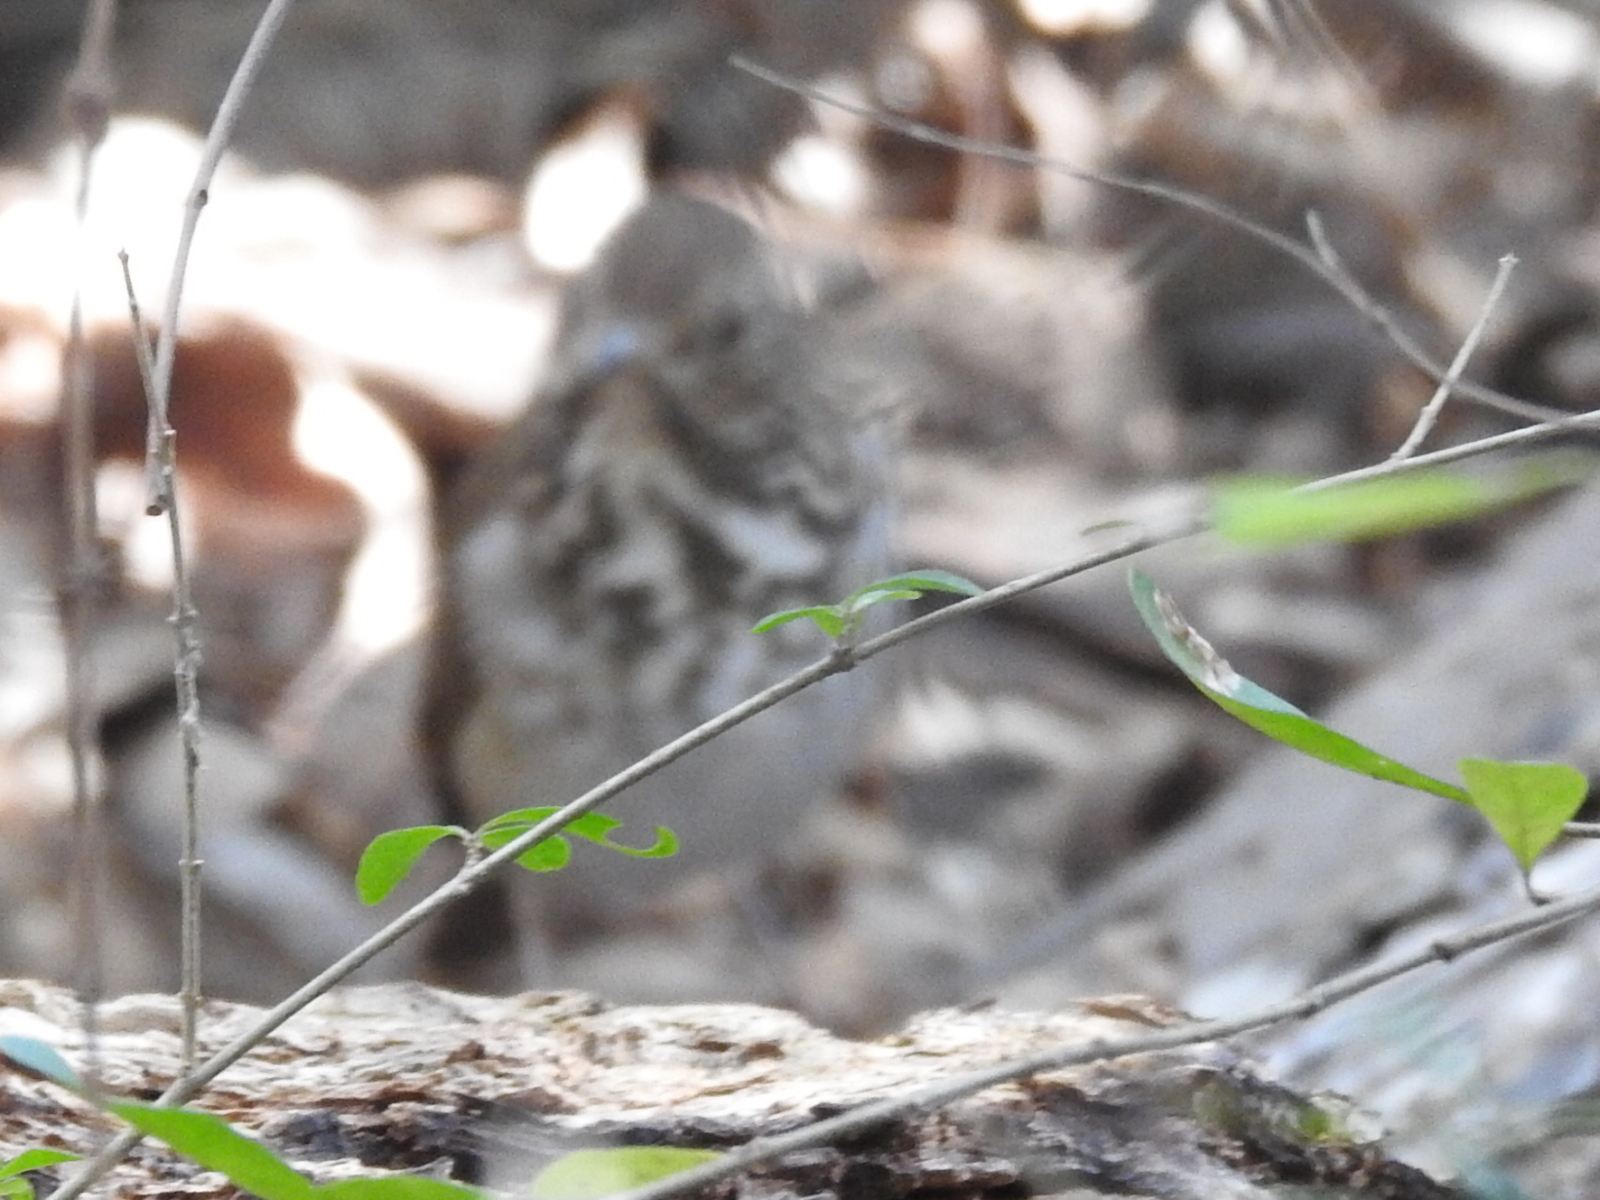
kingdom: Animalia
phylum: Chordata
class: Aves
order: Passeriformes
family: Turdidae
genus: Catharus
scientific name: Catharus guttatus
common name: Hermit thrush
